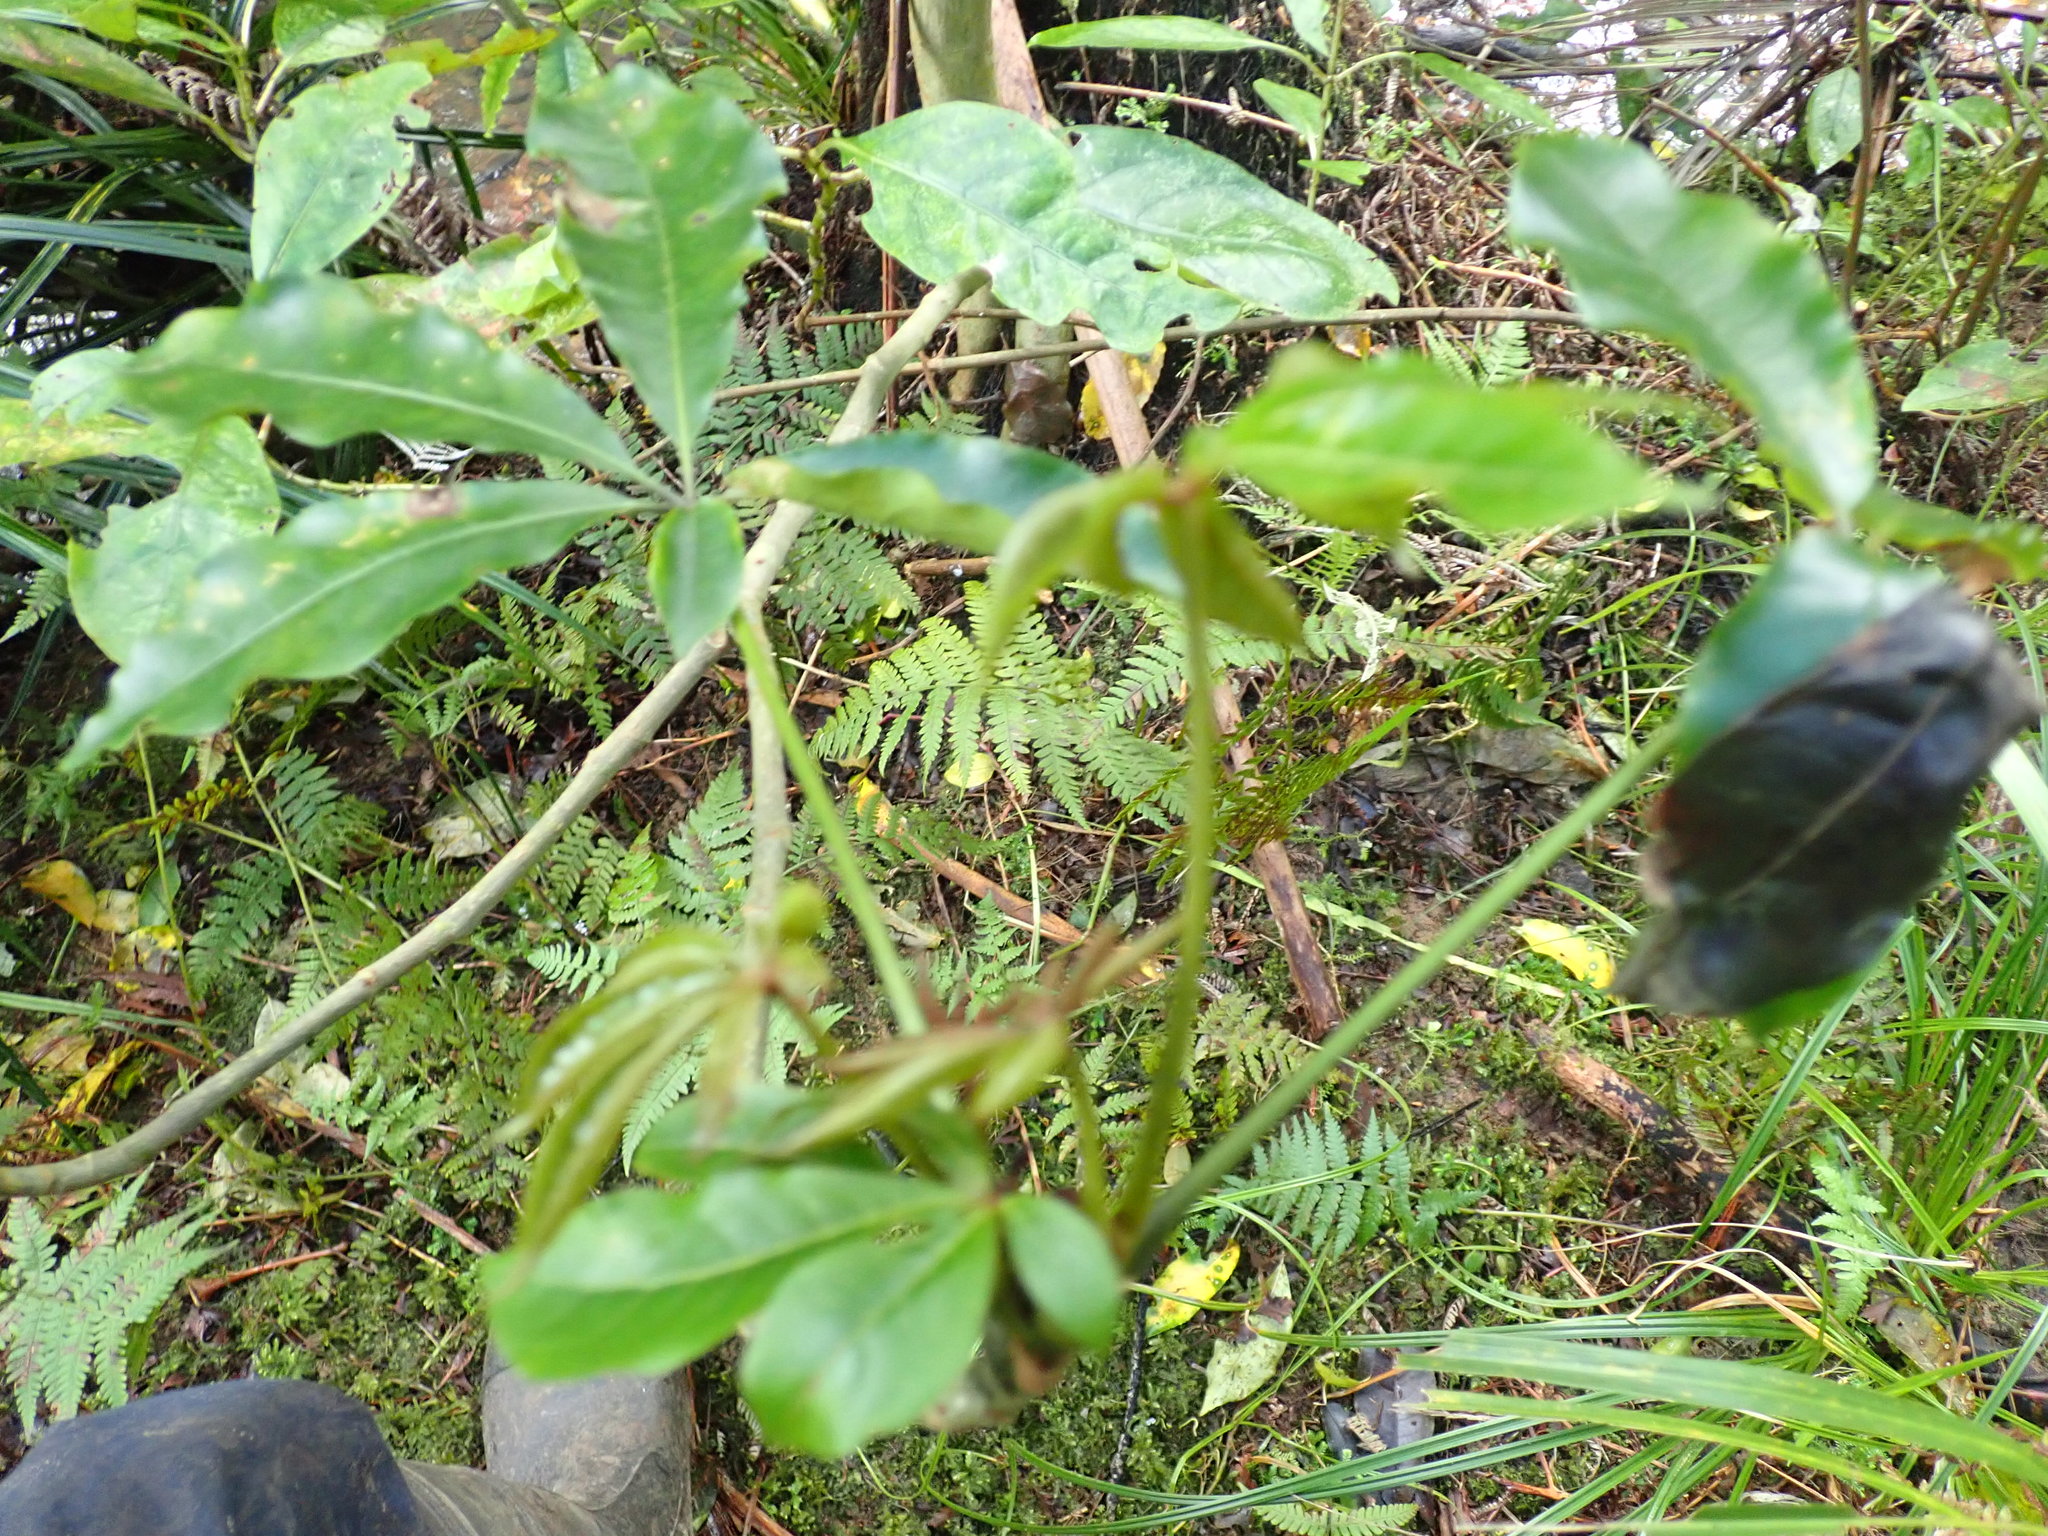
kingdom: Plantae
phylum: Tracheophyta
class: Magnoliopsida
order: Apiales
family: Araliaceae
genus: Schefflera
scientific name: Schefflera digitata
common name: Pate
